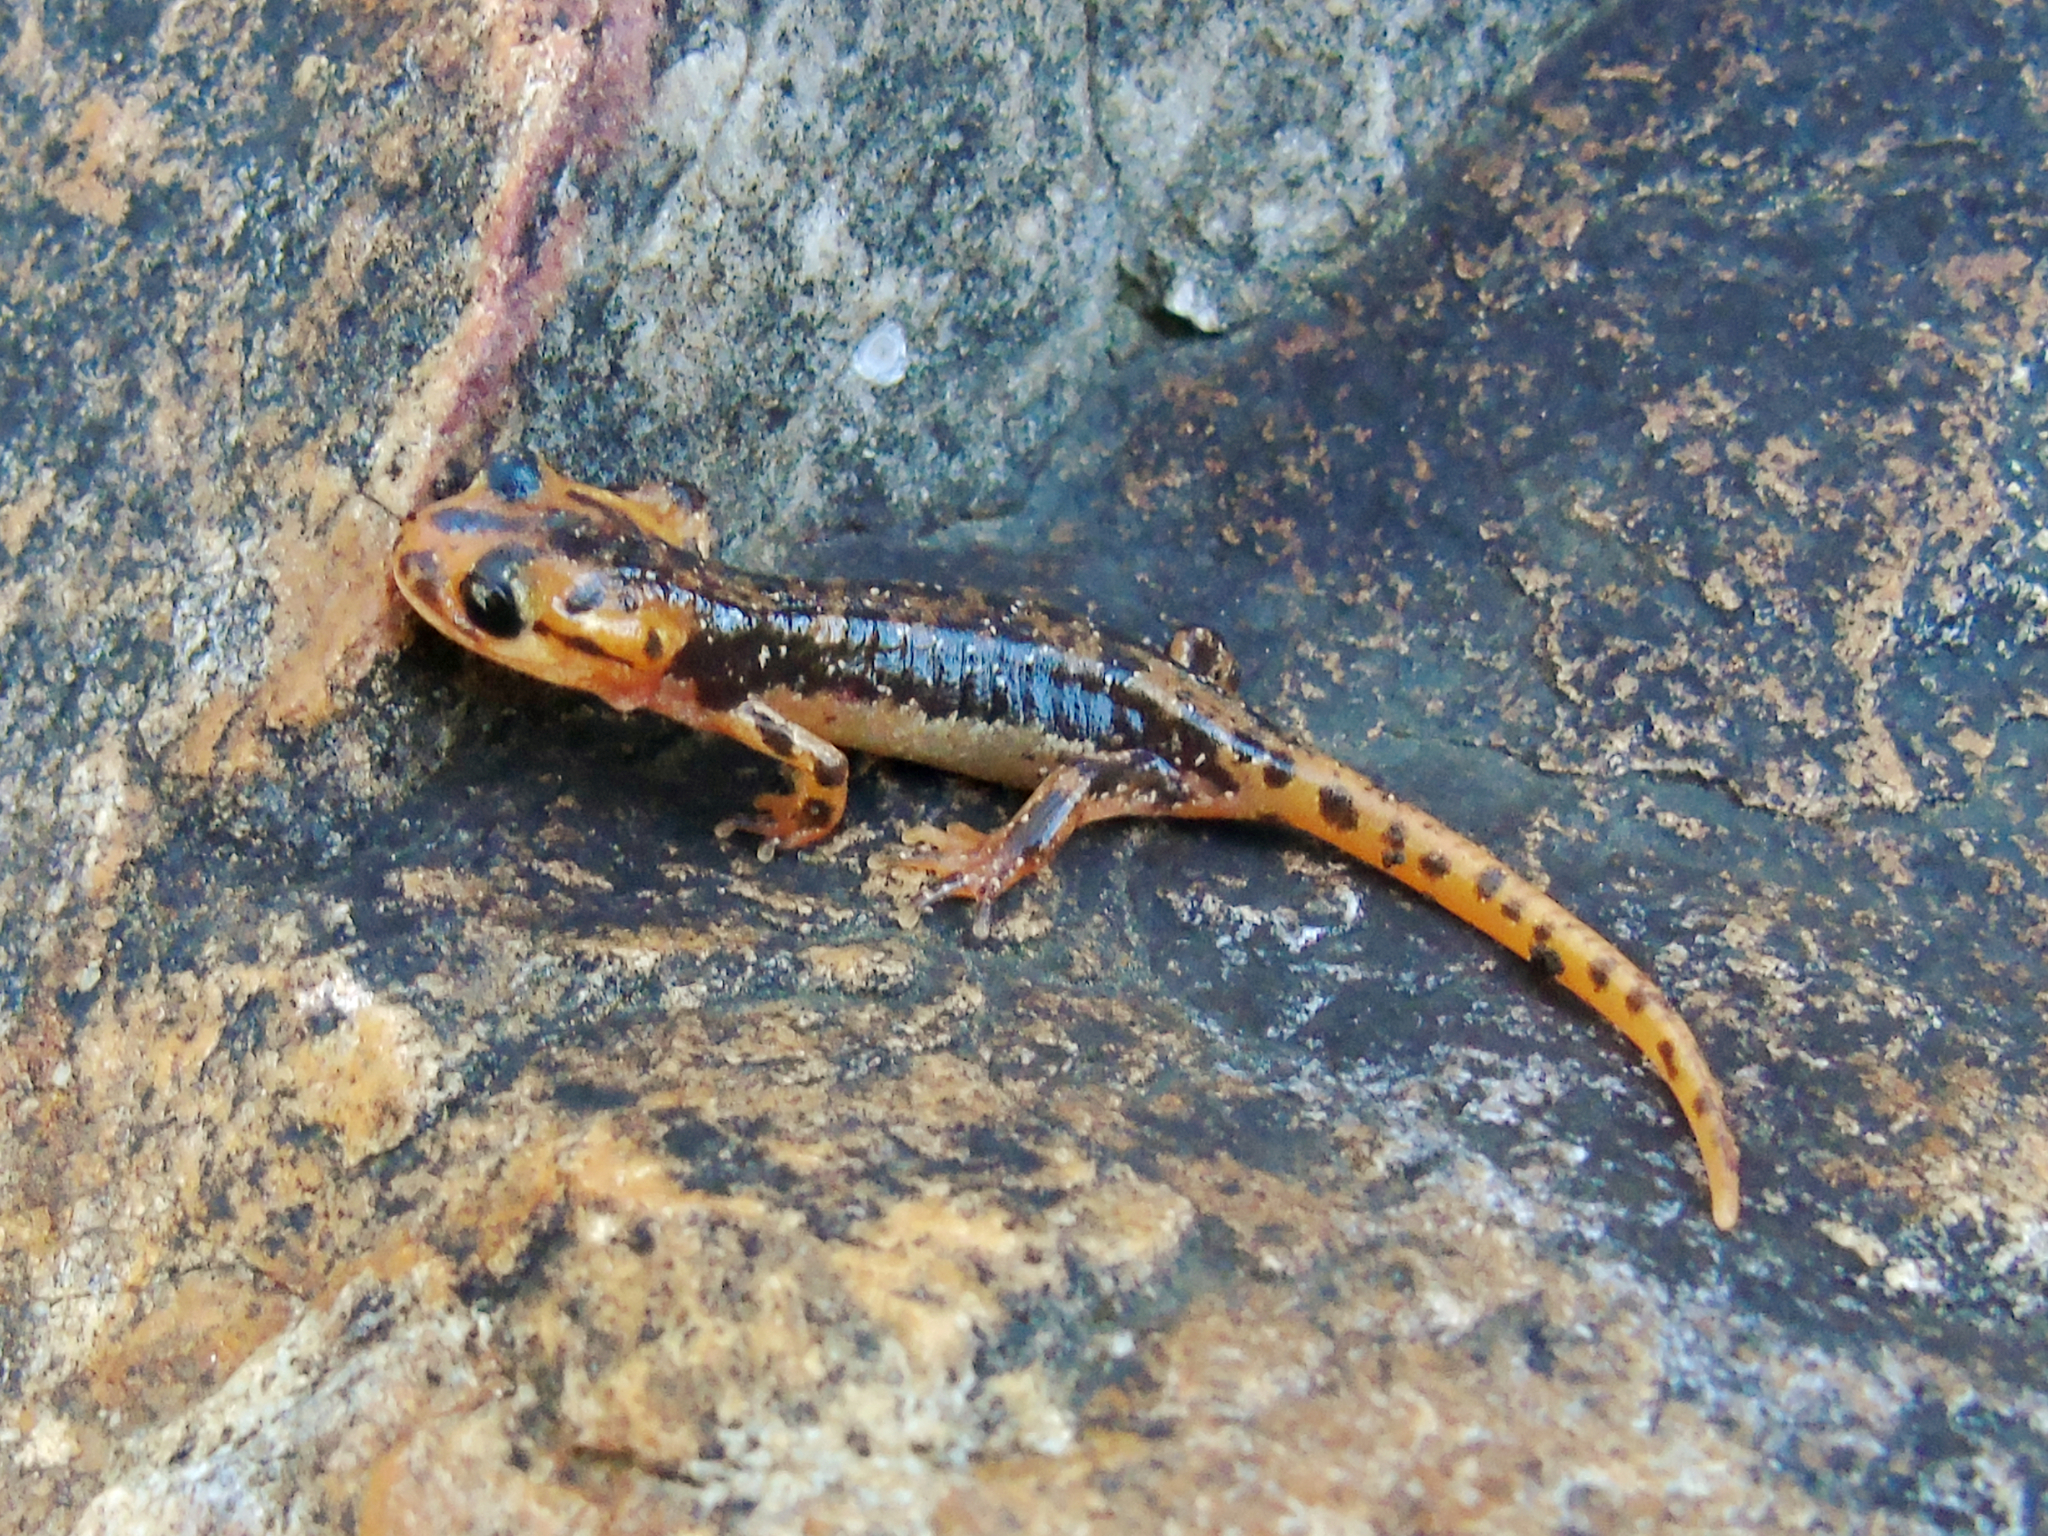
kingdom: Animalia
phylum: Chordata
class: Amphibia
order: Caudata
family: Salamandridae
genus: Lyciasalamandra
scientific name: Lyciasalamandra fazilae
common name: Fazila's salamander
